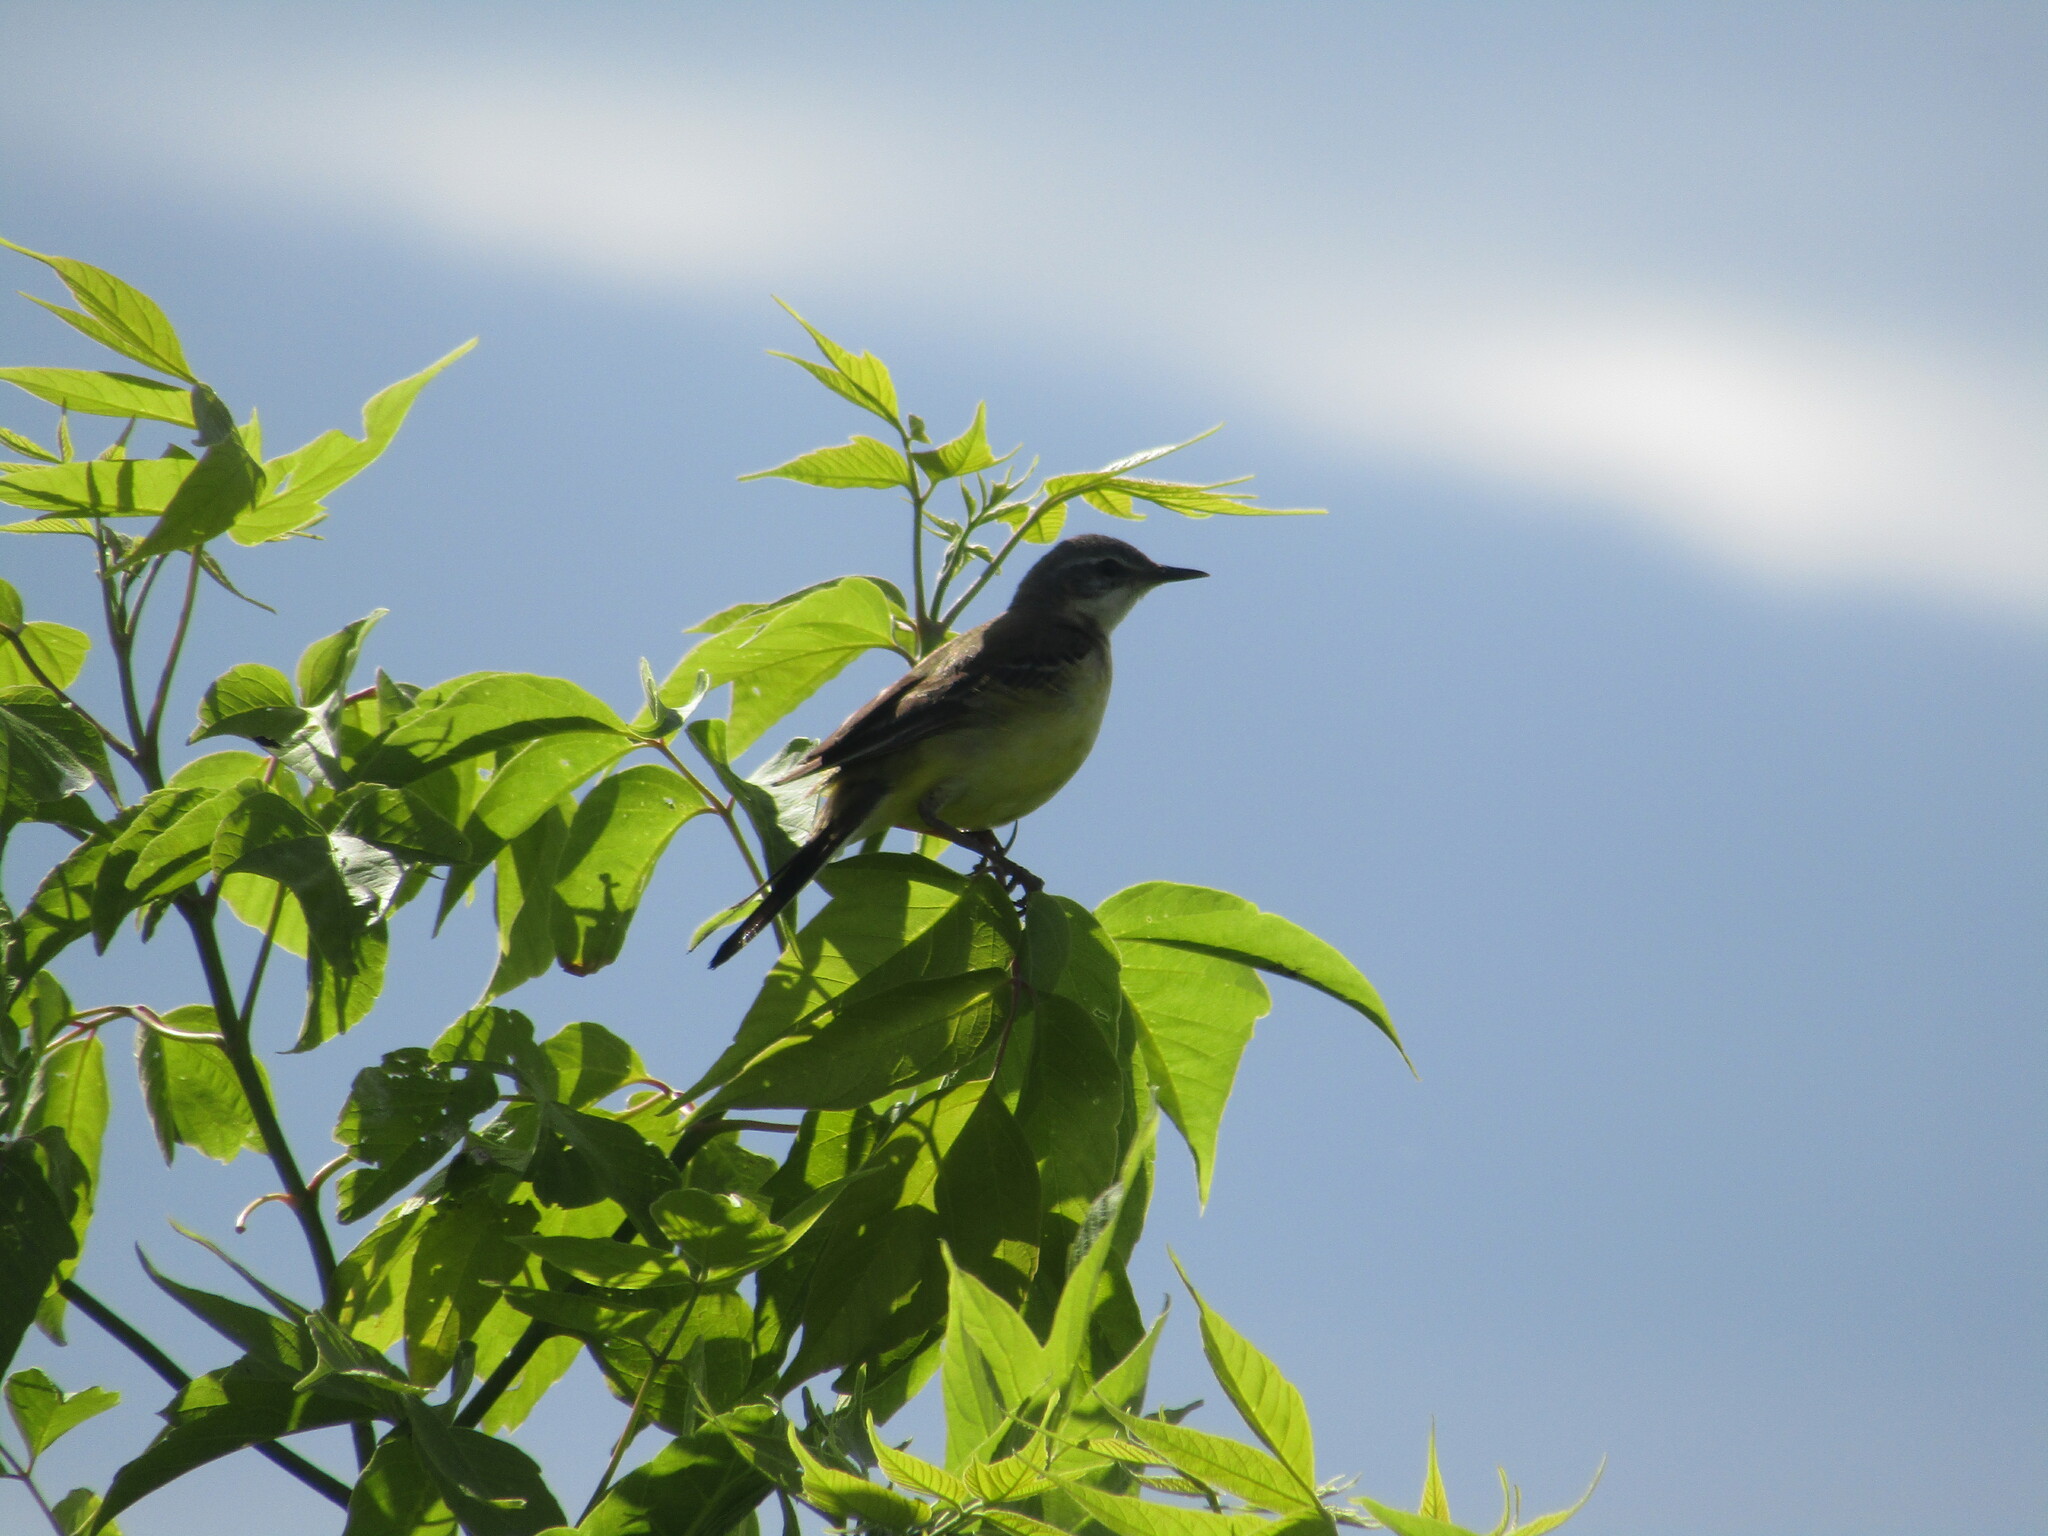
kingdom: Animalia
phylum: Chordata
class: Aves
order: Passeriformes
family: Motacillidae
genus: Motacilla
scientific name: Motacilla flava
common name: Western yellow wagtail
